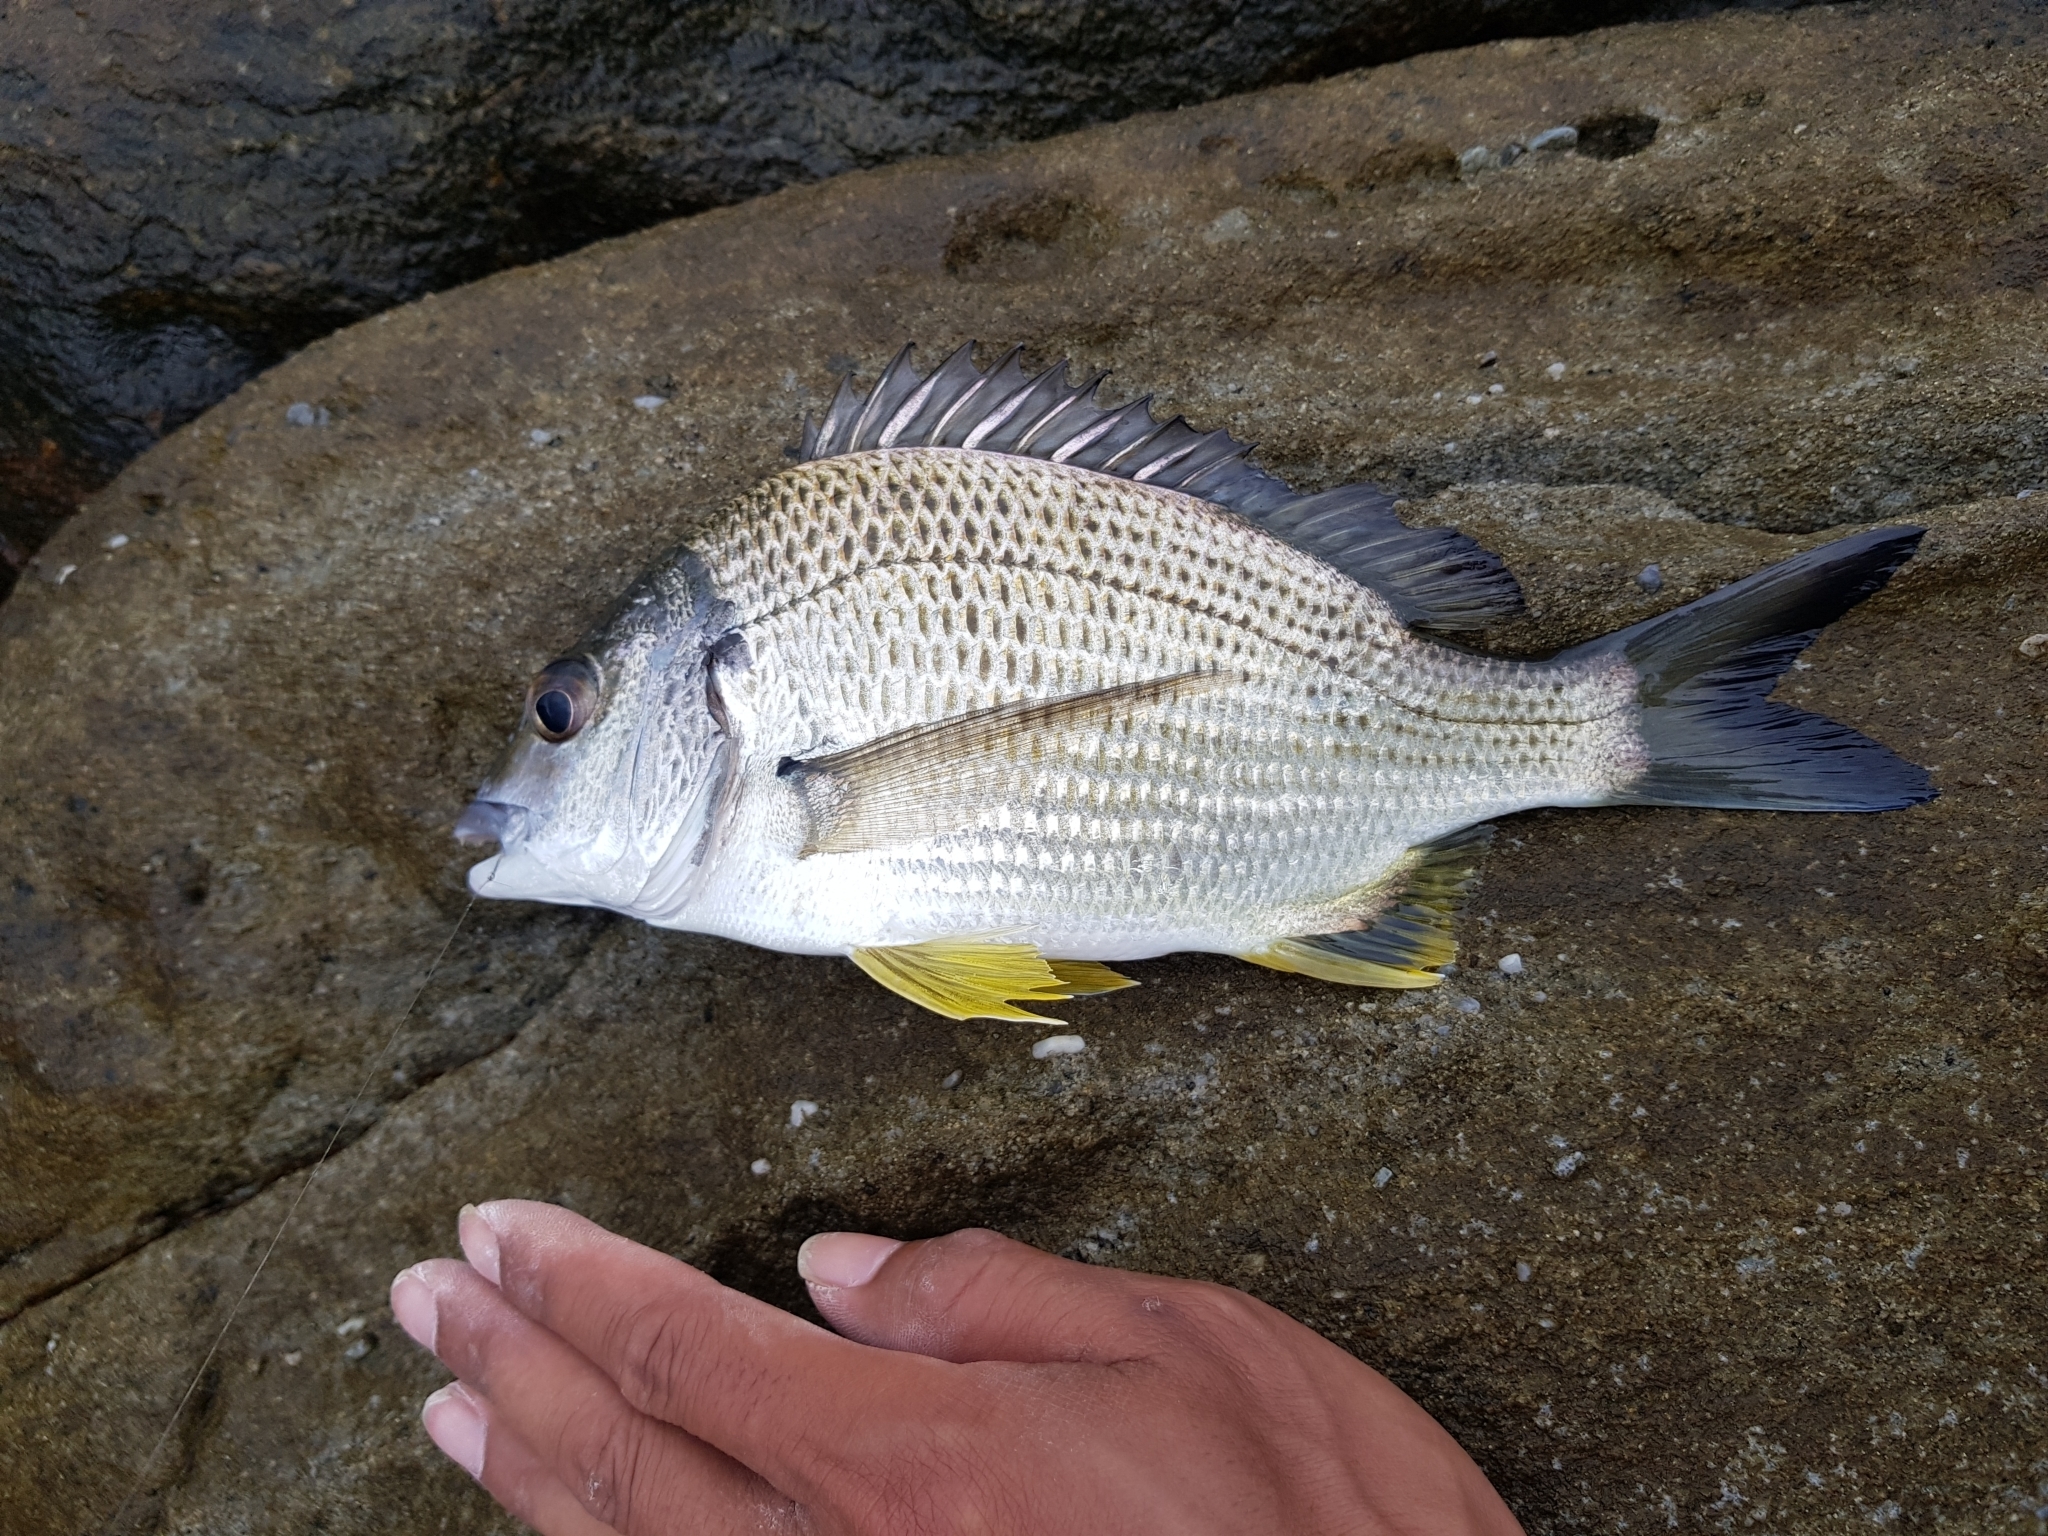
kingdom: Animalia
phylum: Chordata
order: Perciformes
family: Sparidae
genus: Acanthopagrus
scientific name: Acanthopagrus australis
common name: Surf bream
